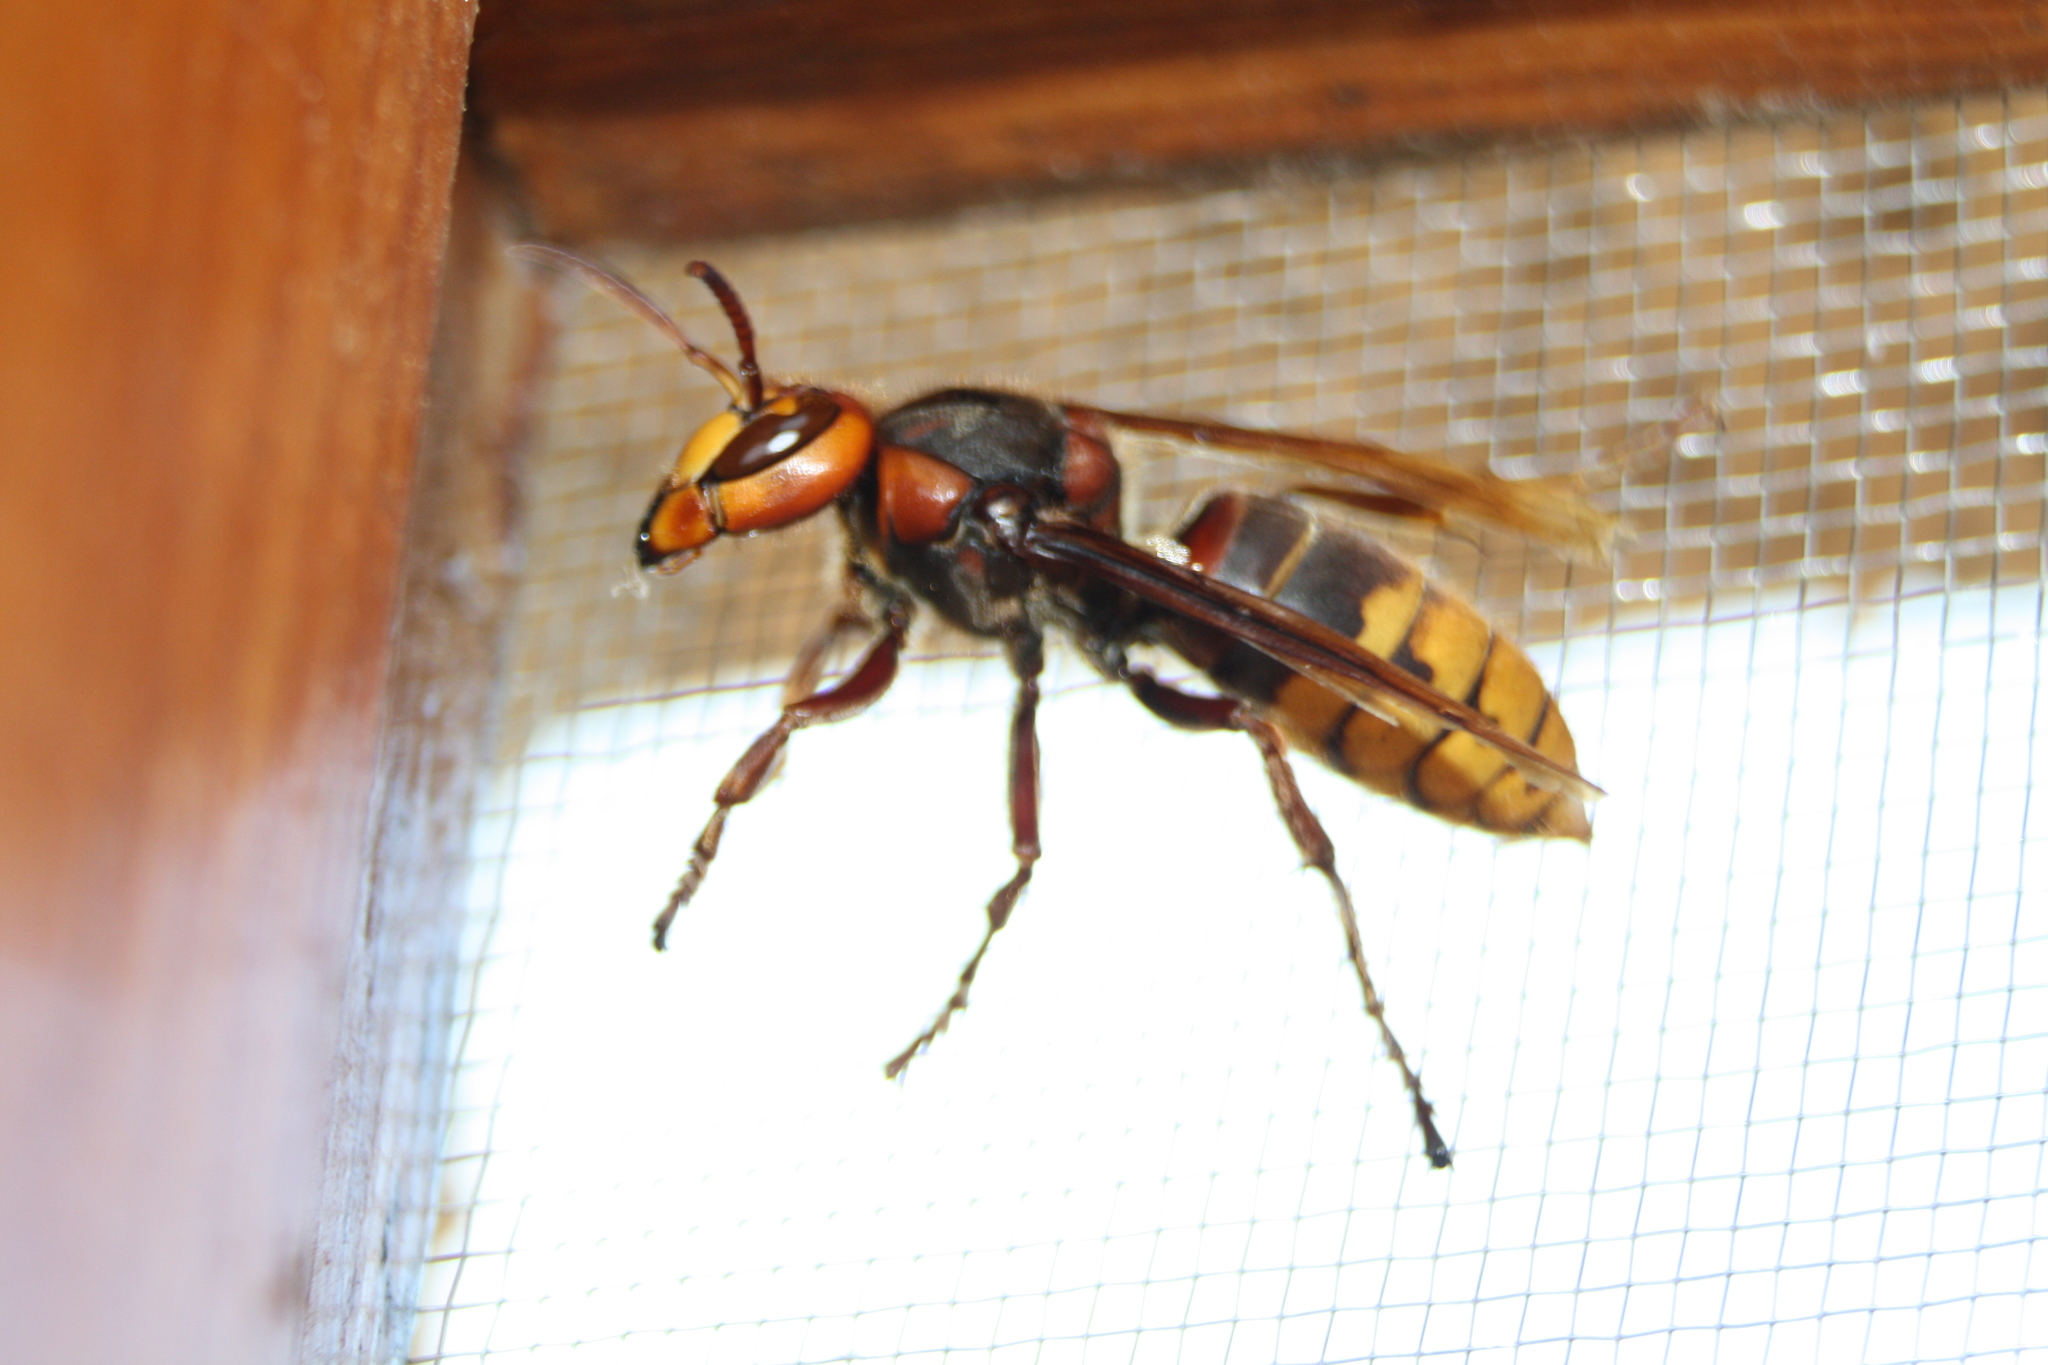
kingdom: Animalia
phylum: Arthropoda
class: Insecta
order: Hymenoptera
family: Vespidae
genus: Vespa
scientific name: Vespa crabro
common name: Hornet
